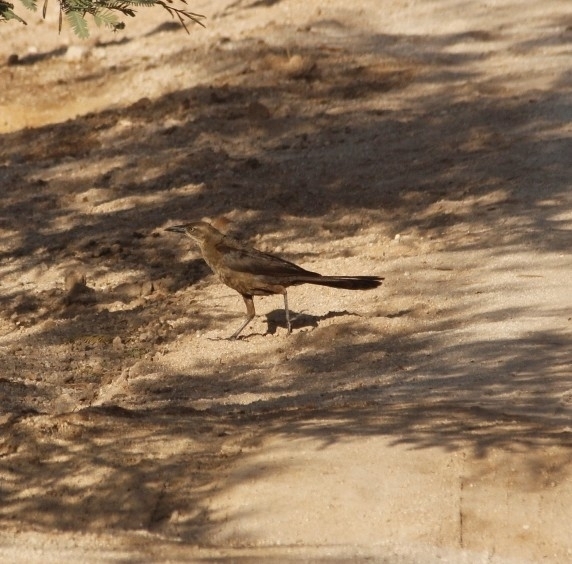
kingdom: Animalia
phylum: Chordata
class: Aves
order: Passeriformes
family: Icteridae
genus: Quiscalus
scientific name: Quiscalus mexicanus
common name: Great-tailed grackle
